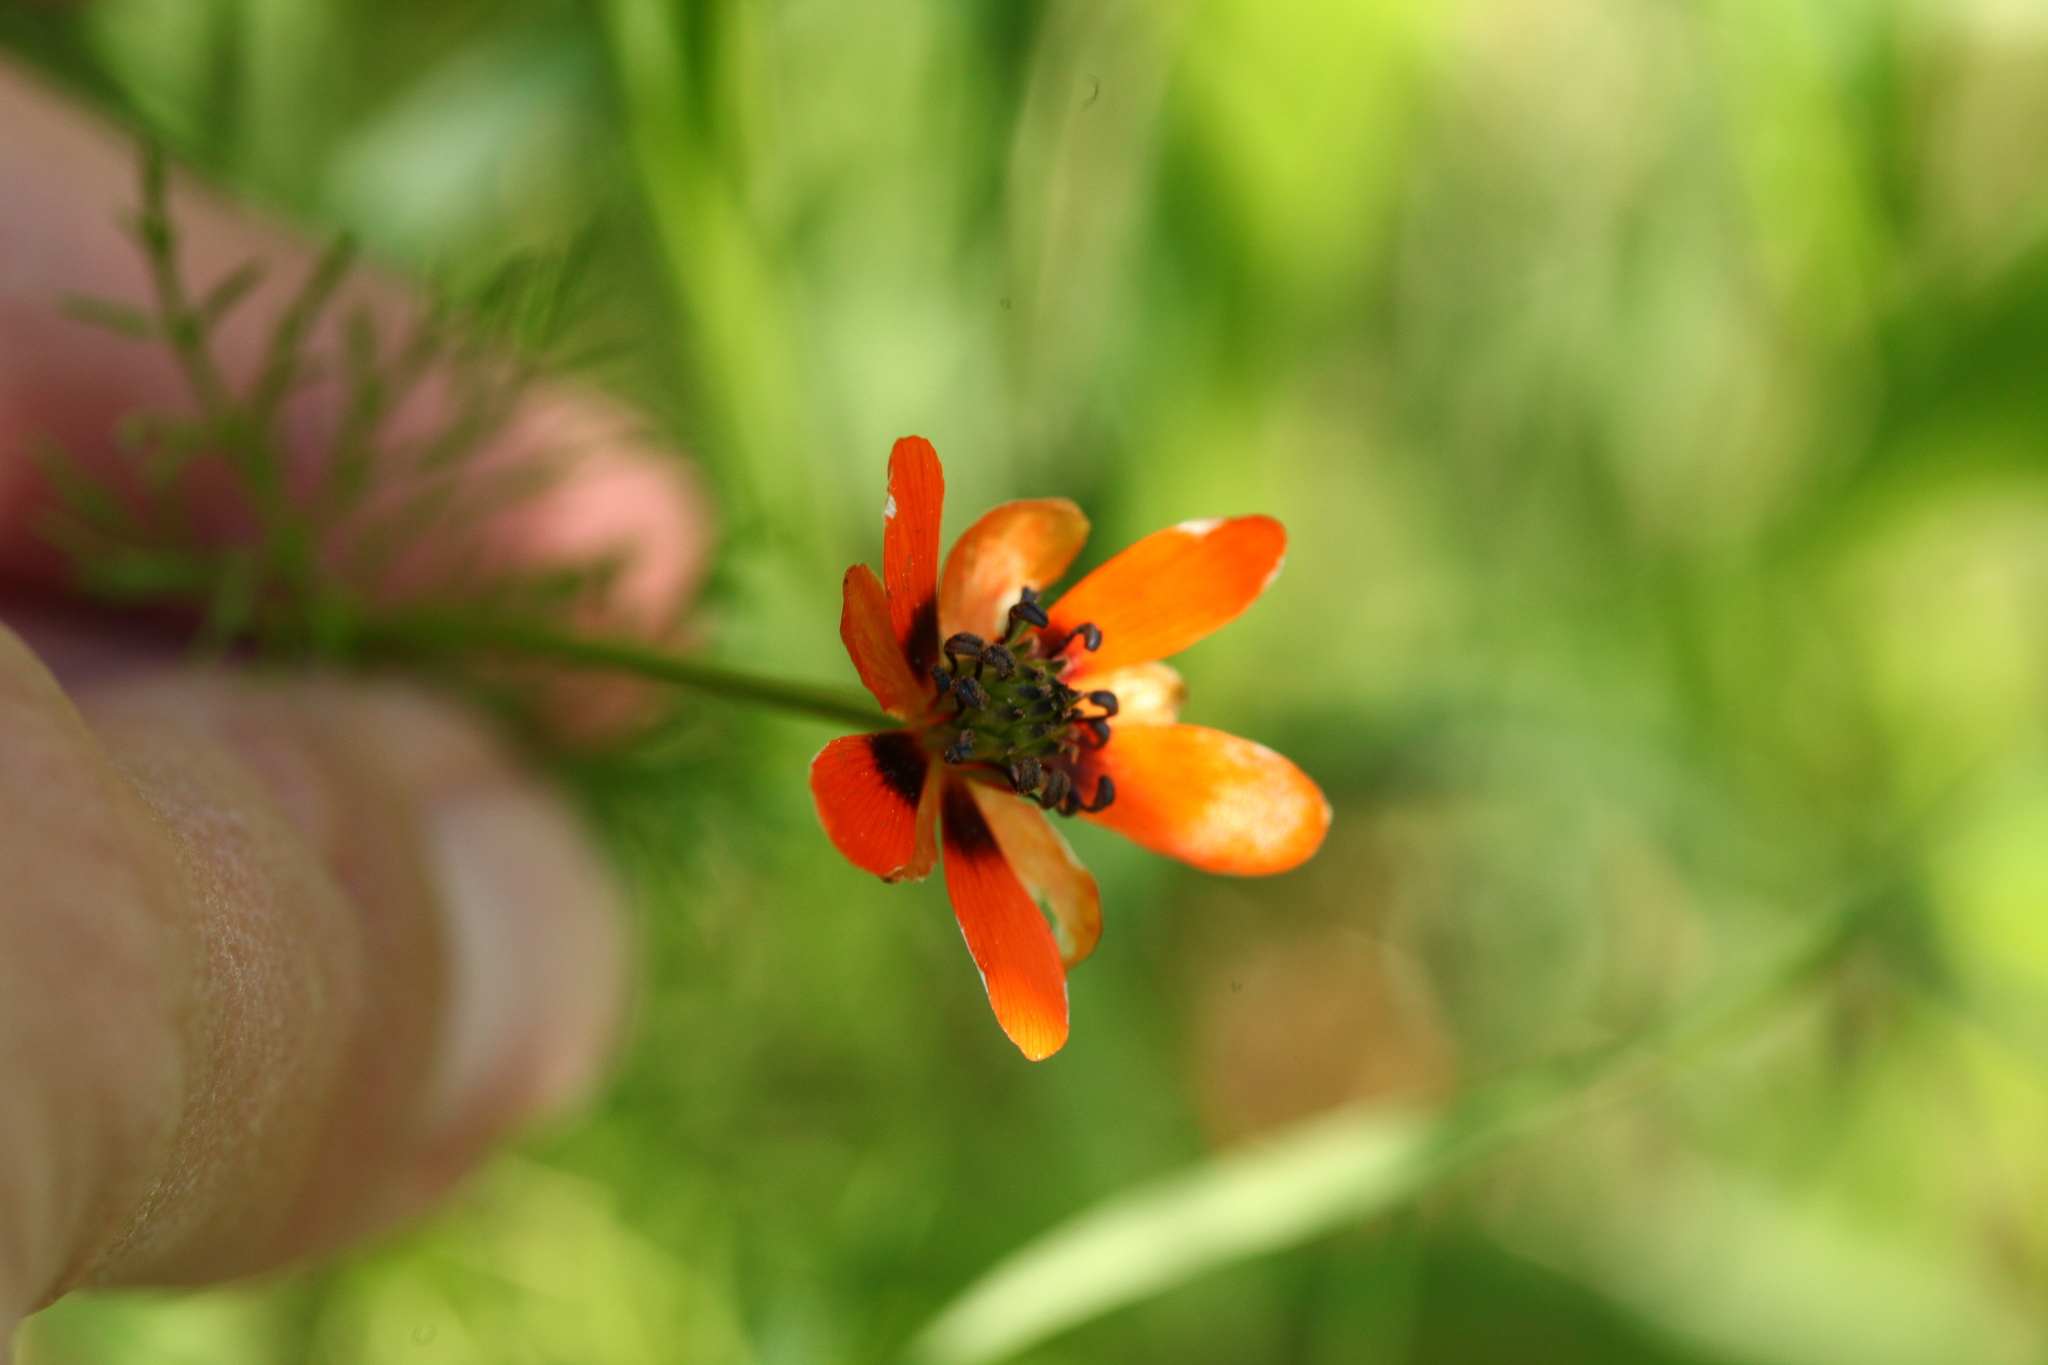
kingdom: Plantae
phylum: Tracheophyta
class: Magnoliopsida
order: Ranunculales
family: Ranunculaceae
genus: Adonis
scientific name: Adonis aestivalis
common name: Summer pheasant's-eye
